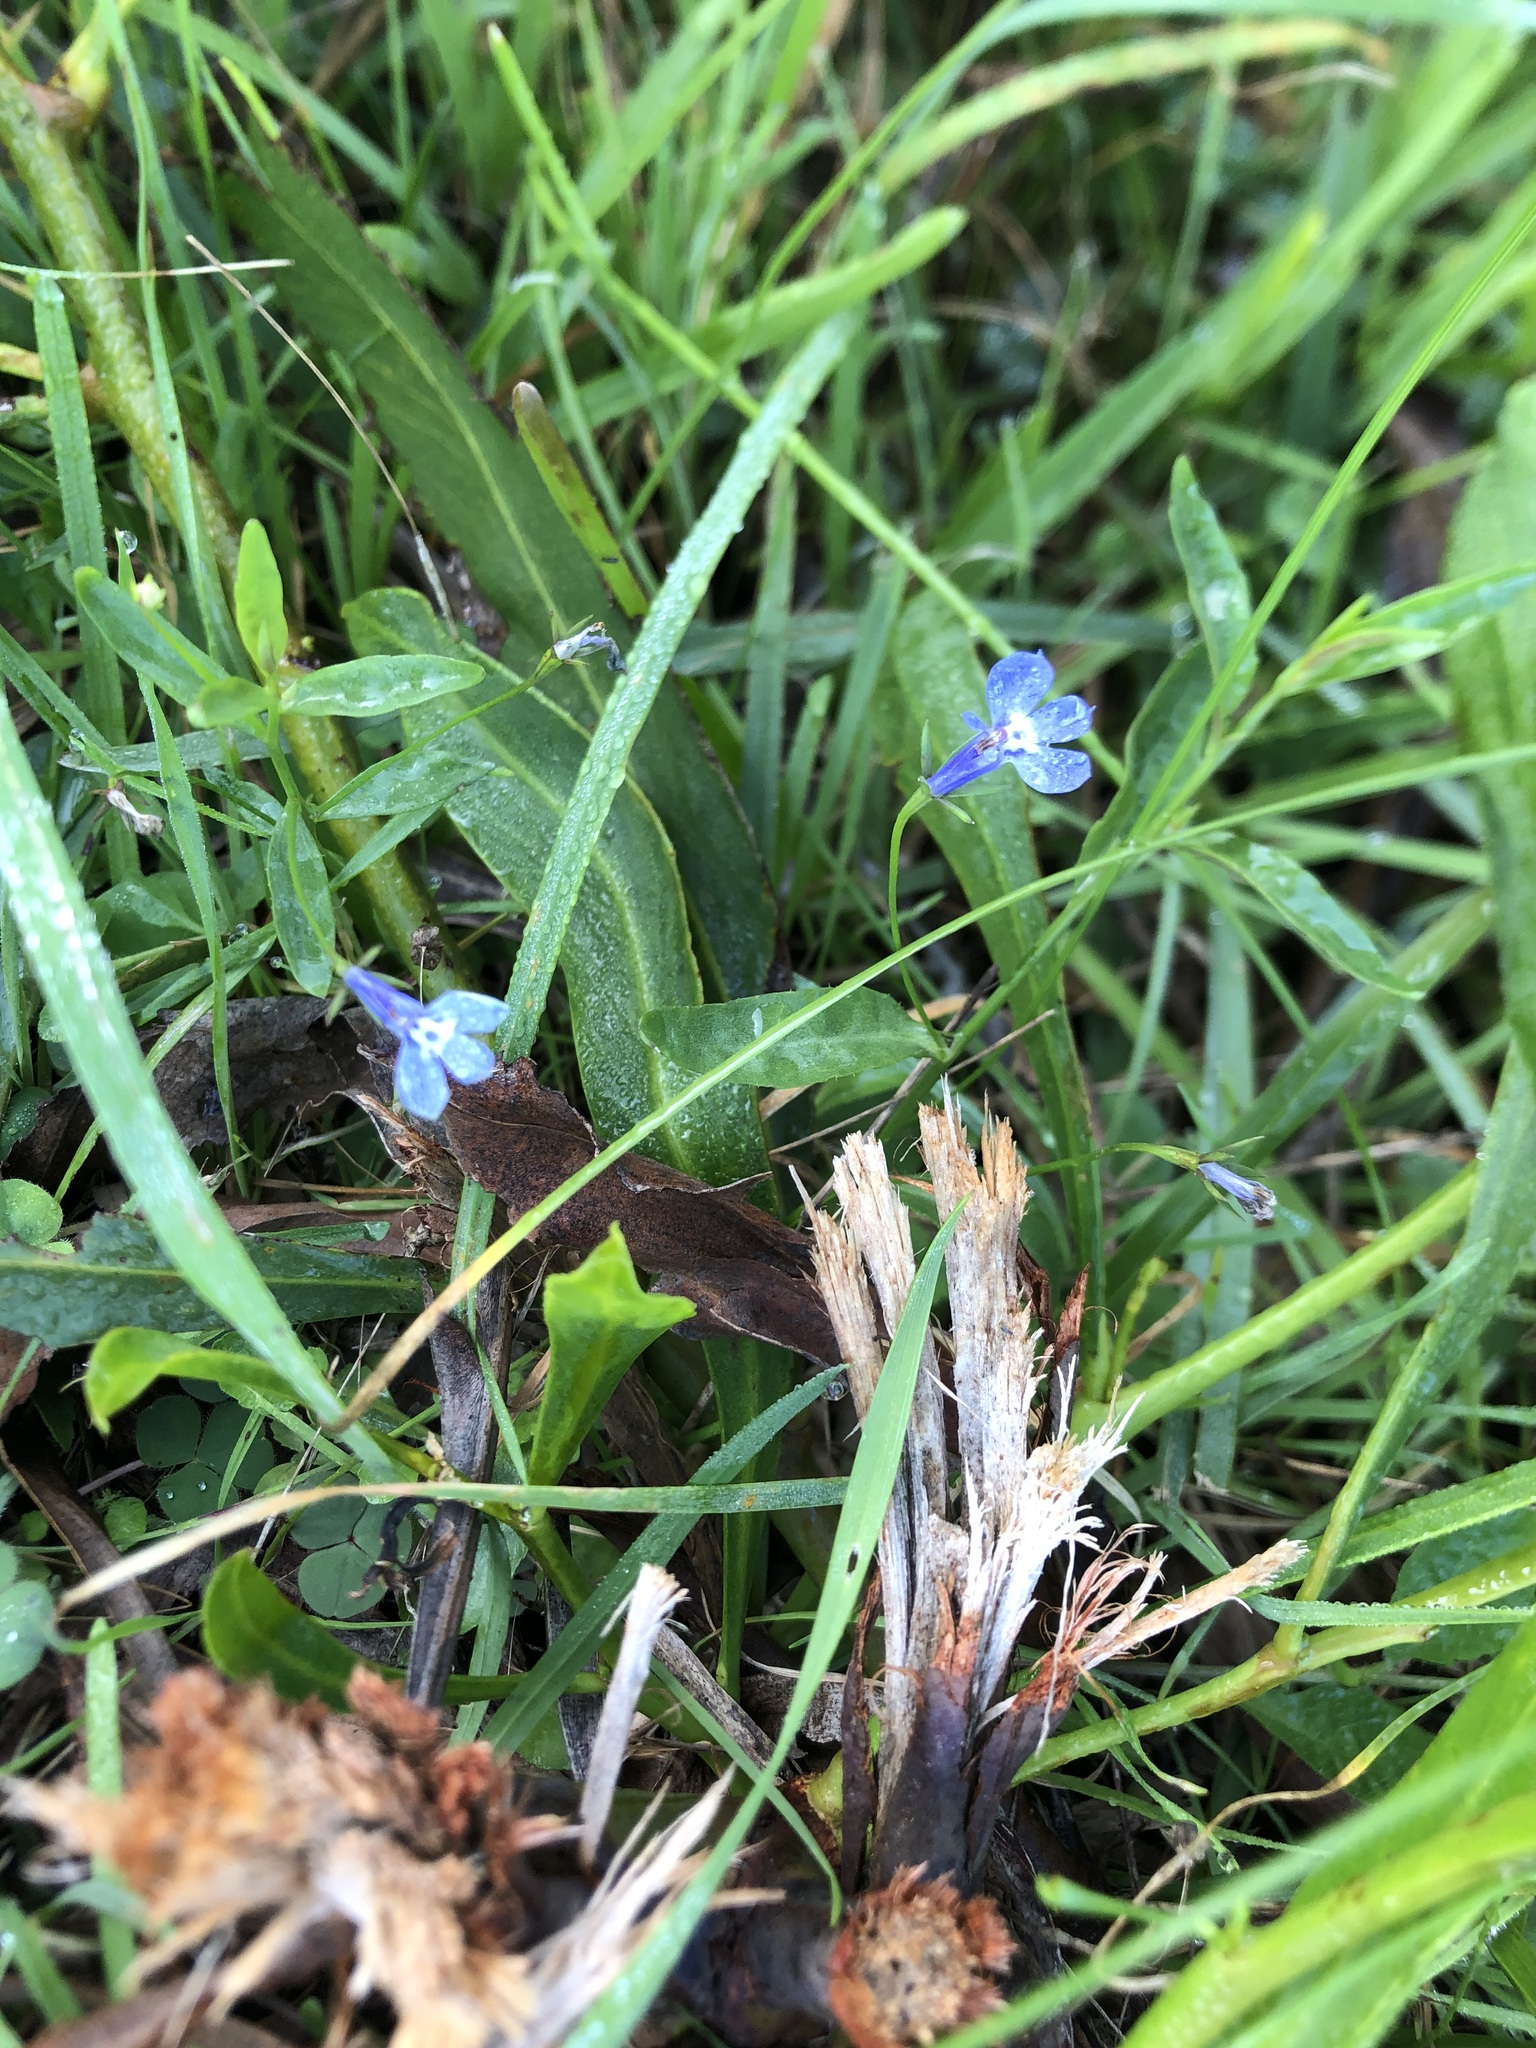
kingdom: Plantae
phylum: Tracheophyta
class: Magnoliopsida
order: Asterales
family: Campanulaceae
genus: Lobelia
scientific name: Lobelia erinus
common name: Edging lobelia
